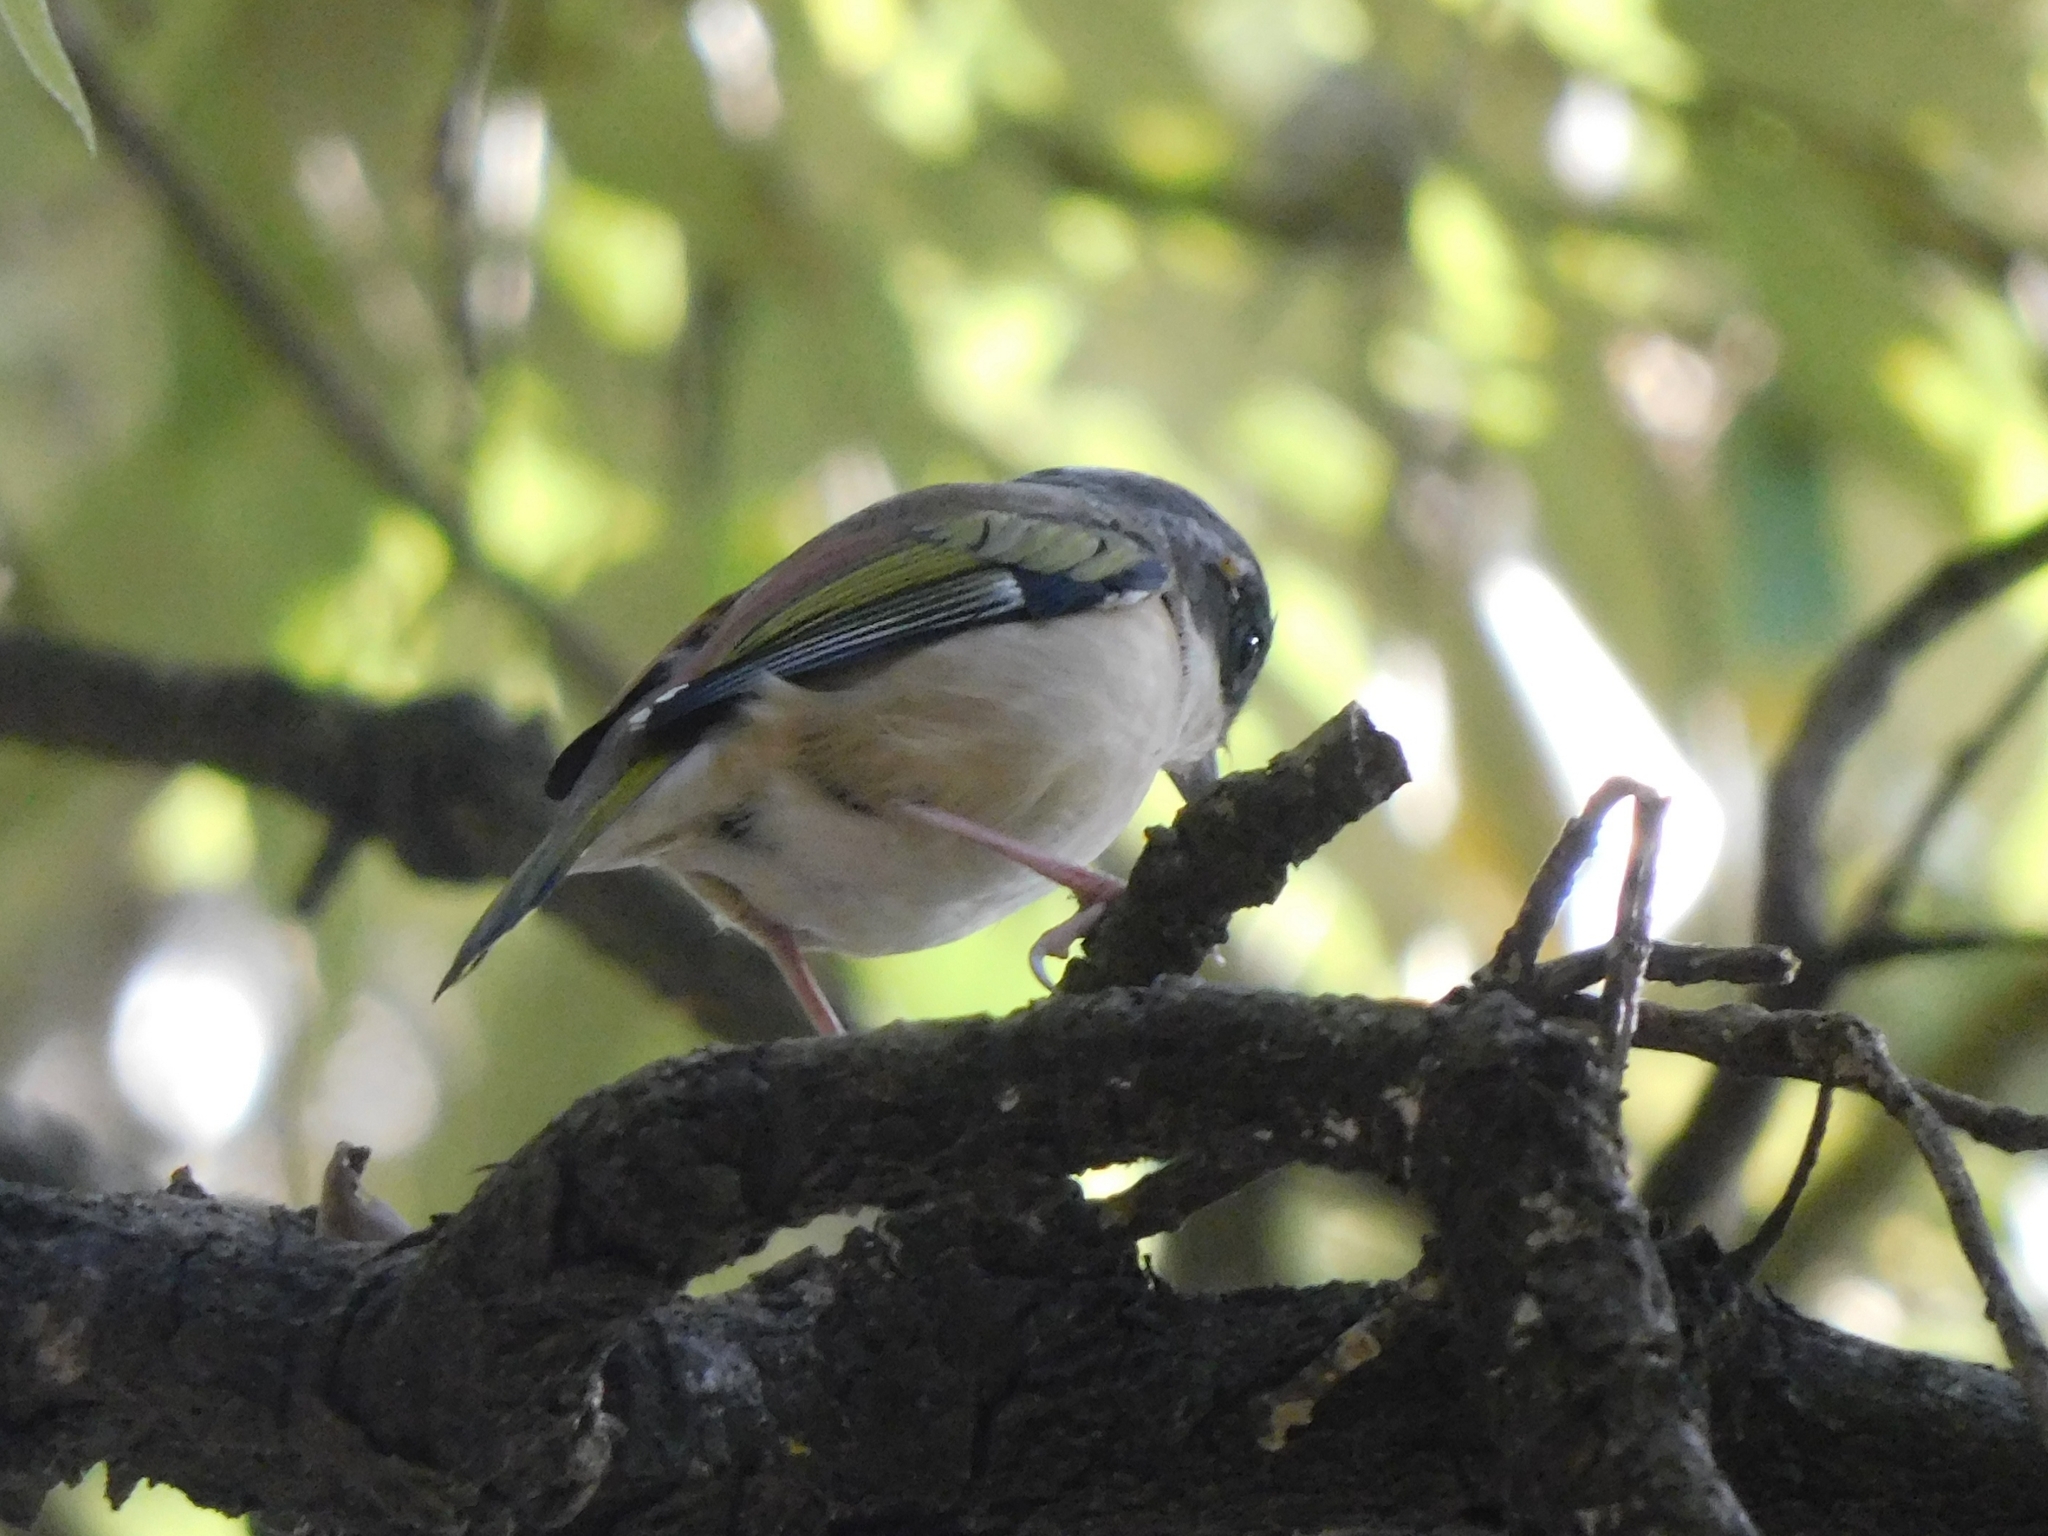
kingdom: Animalia
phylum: Chordata
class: Aves
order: Passeriformes
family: Vireonidae
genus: Pteruthius
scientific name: Pteruthius aeralatus
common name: Blyth's shrike-babbler
